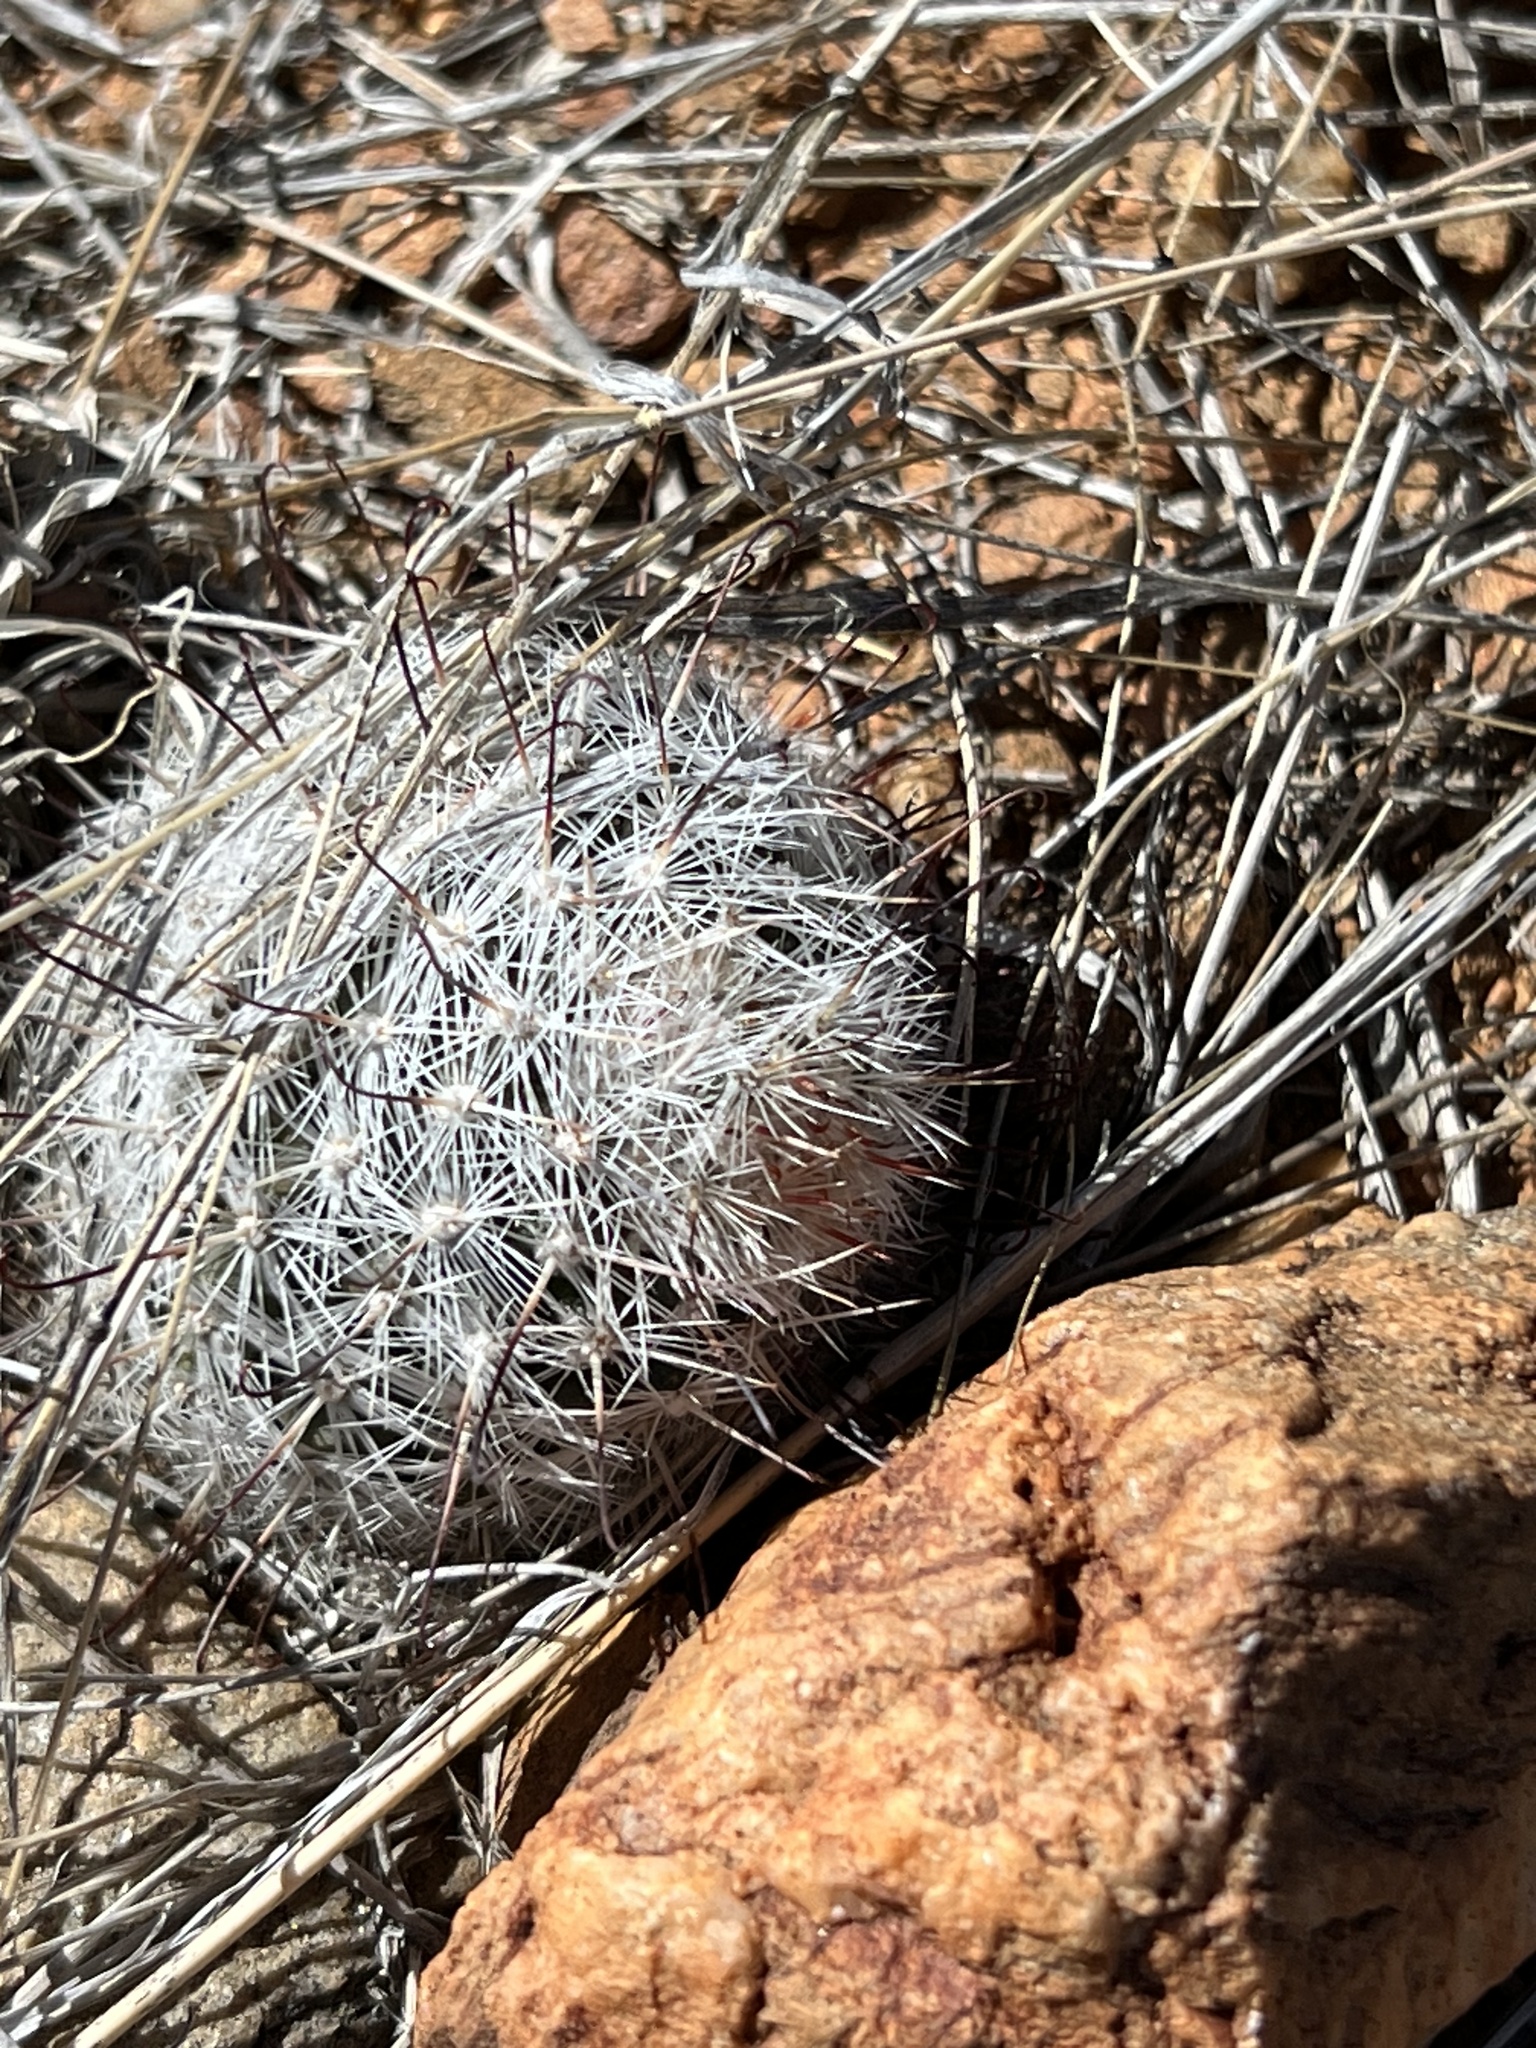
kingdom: Plantae
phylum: Tracheophyta
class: Magnoliopsida
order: Caryophyllales
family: Cactaceae
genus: Cochemiea
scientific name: Cochemiea grahamii
